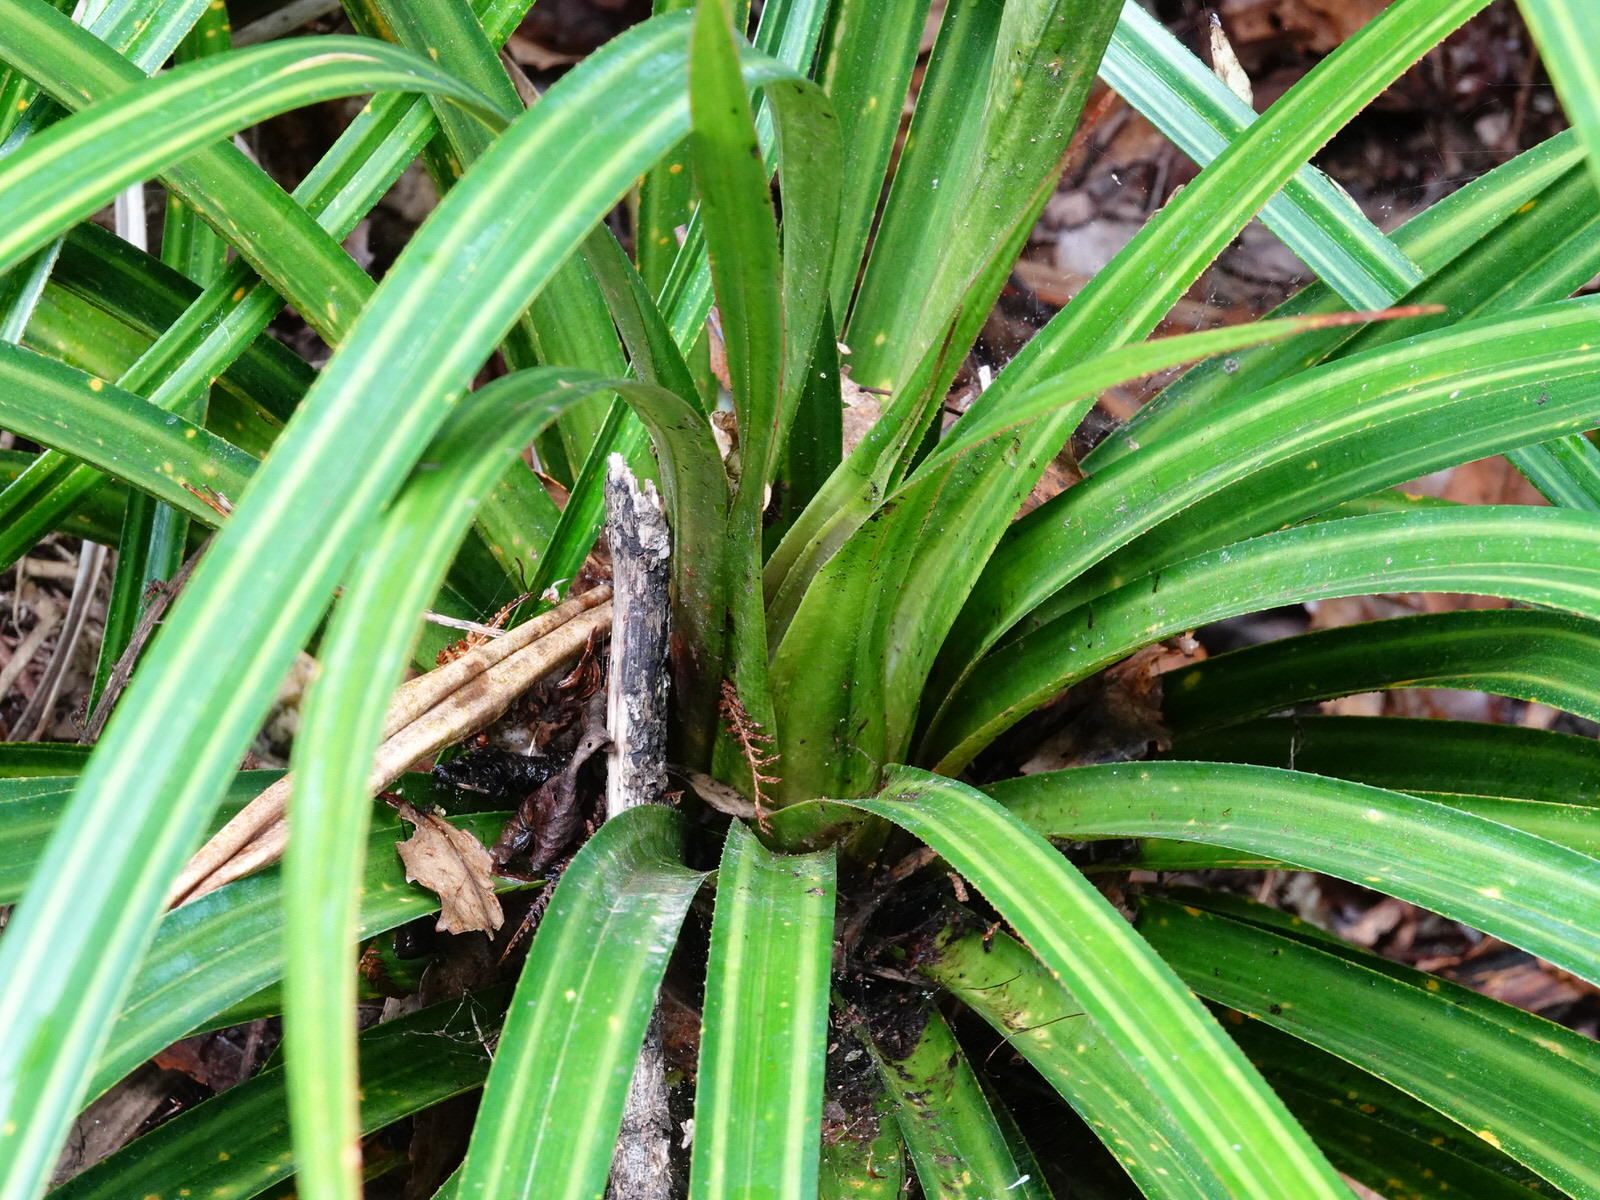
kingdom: Plantae
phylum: Tracheophyta
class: Liliopsida
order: Pandanales
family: Pandanaceae
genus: Freycinetia
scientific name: Freycinetia banksii
